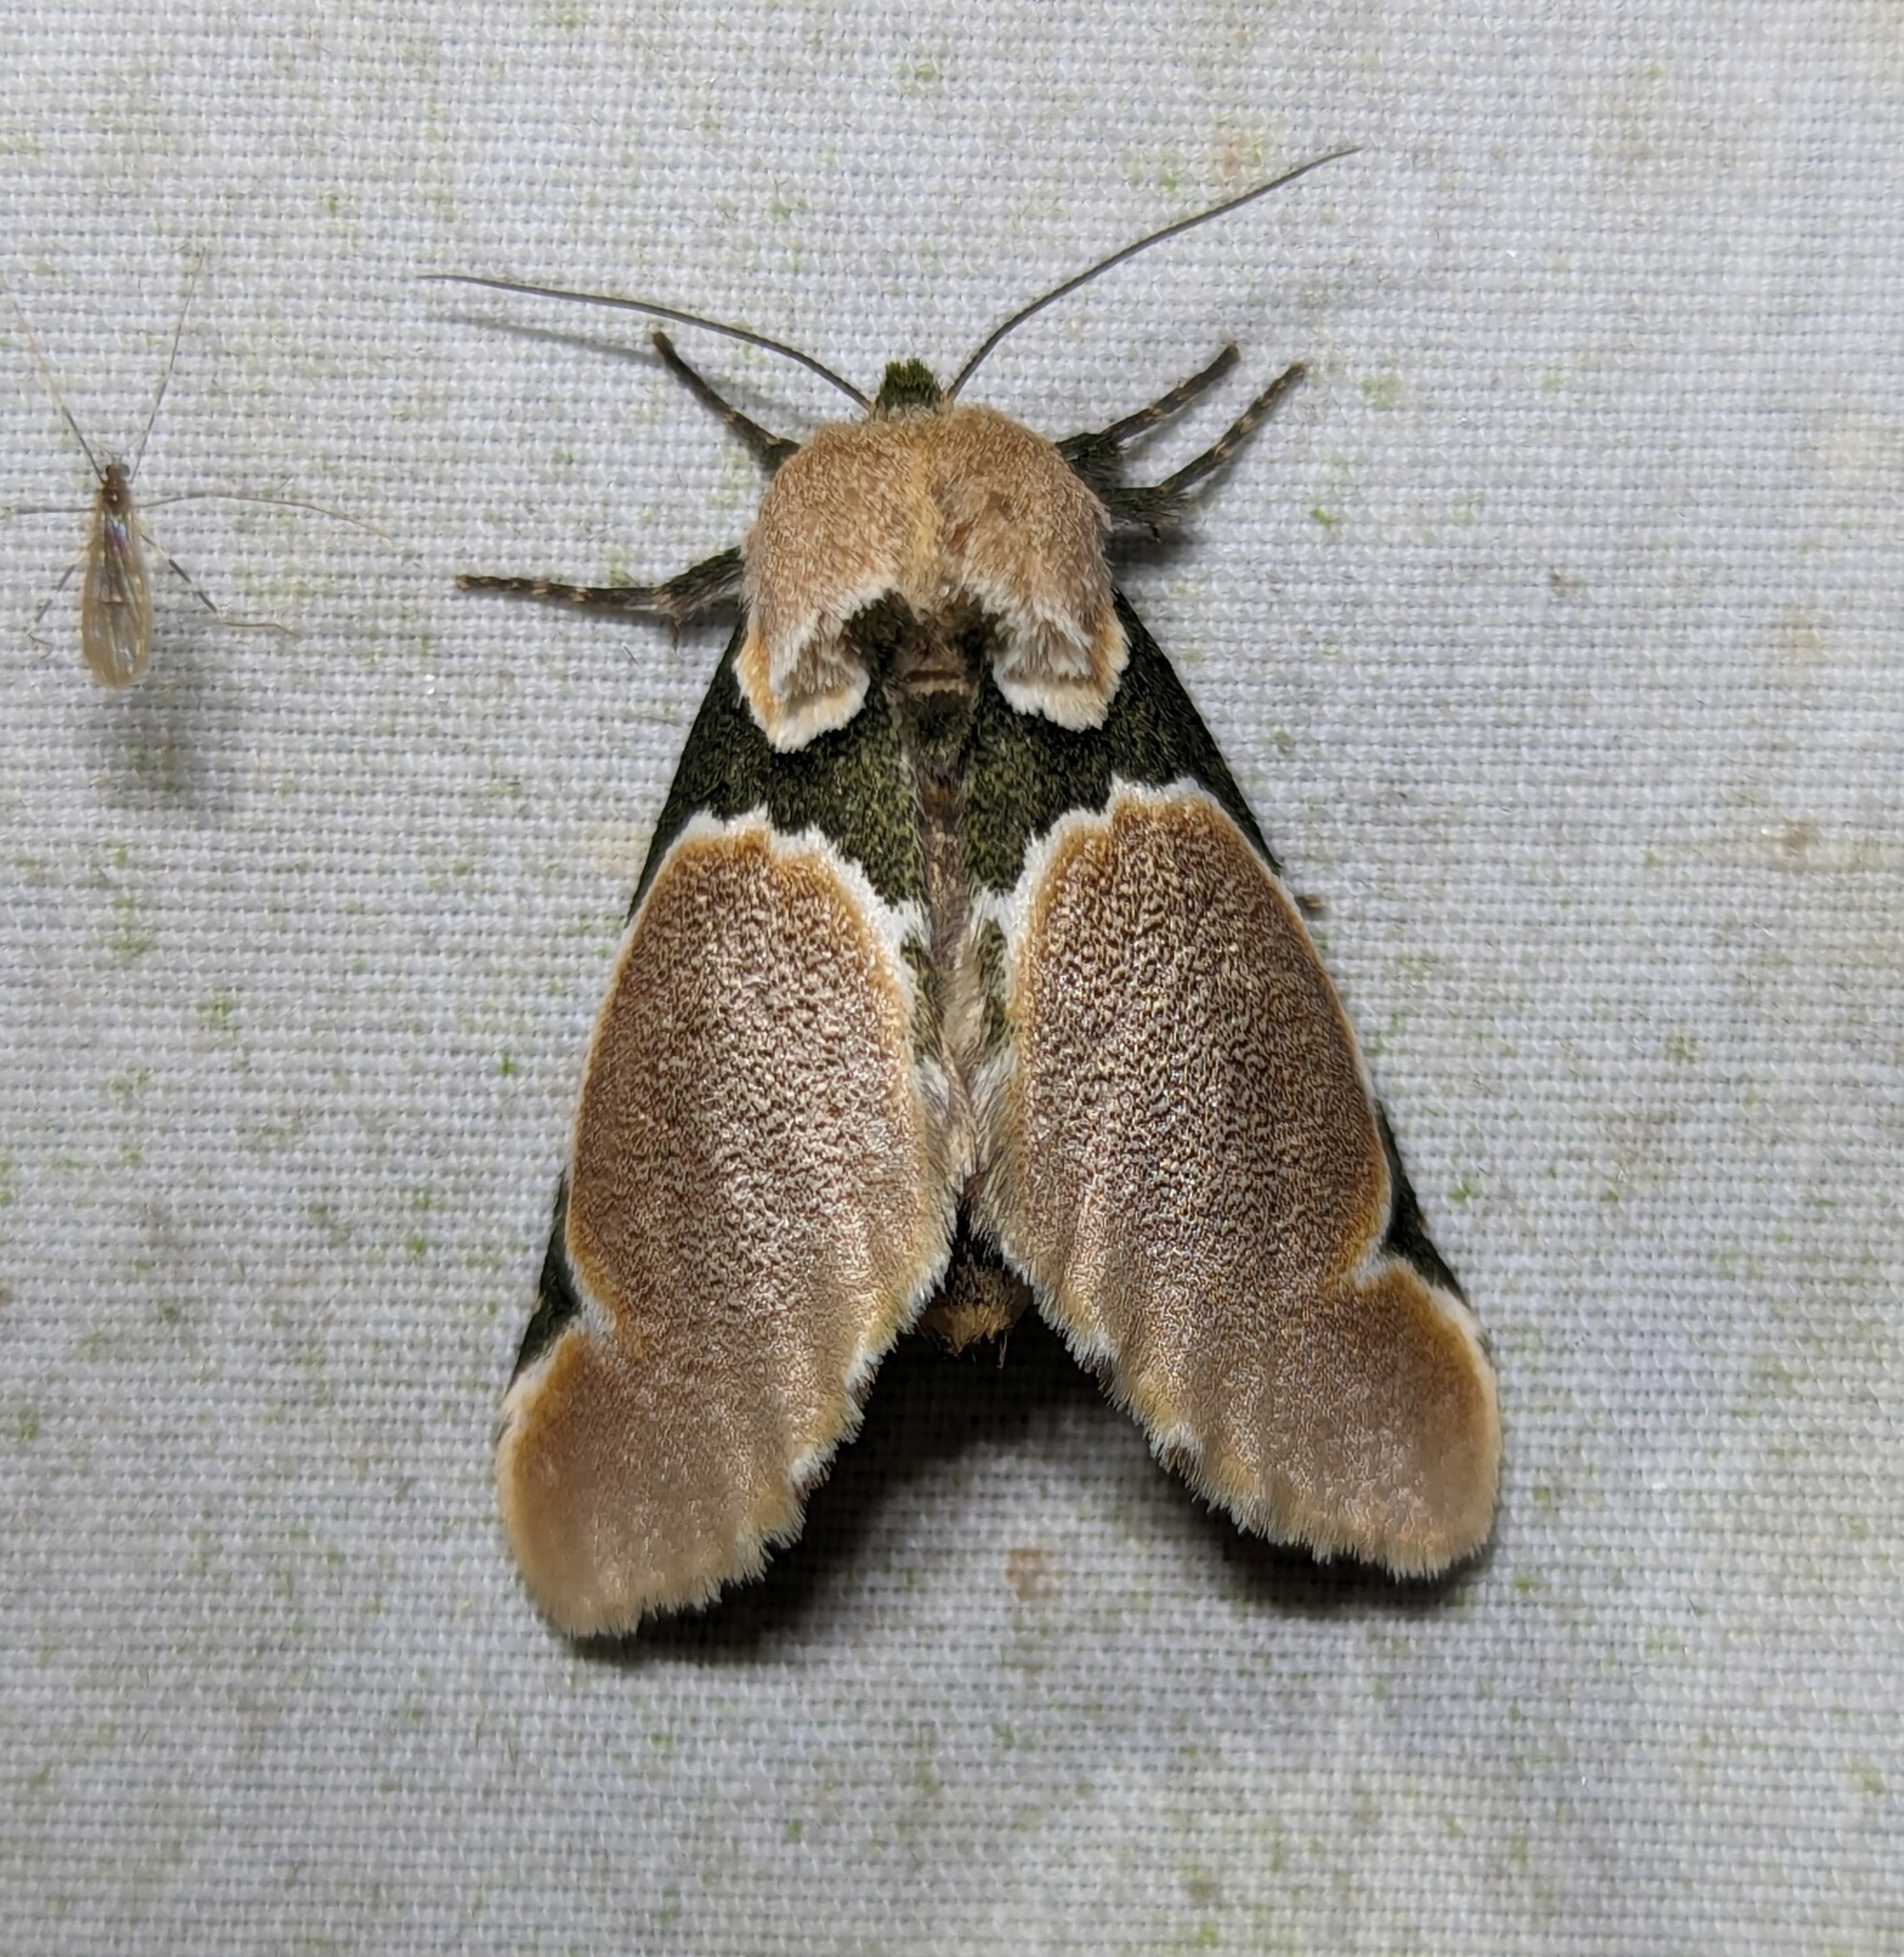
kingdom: Animalia
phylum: Arthropoda
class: Insecta
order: Lepidoptera
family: Notodontidae
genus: Bellonina
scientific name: Bellonina
